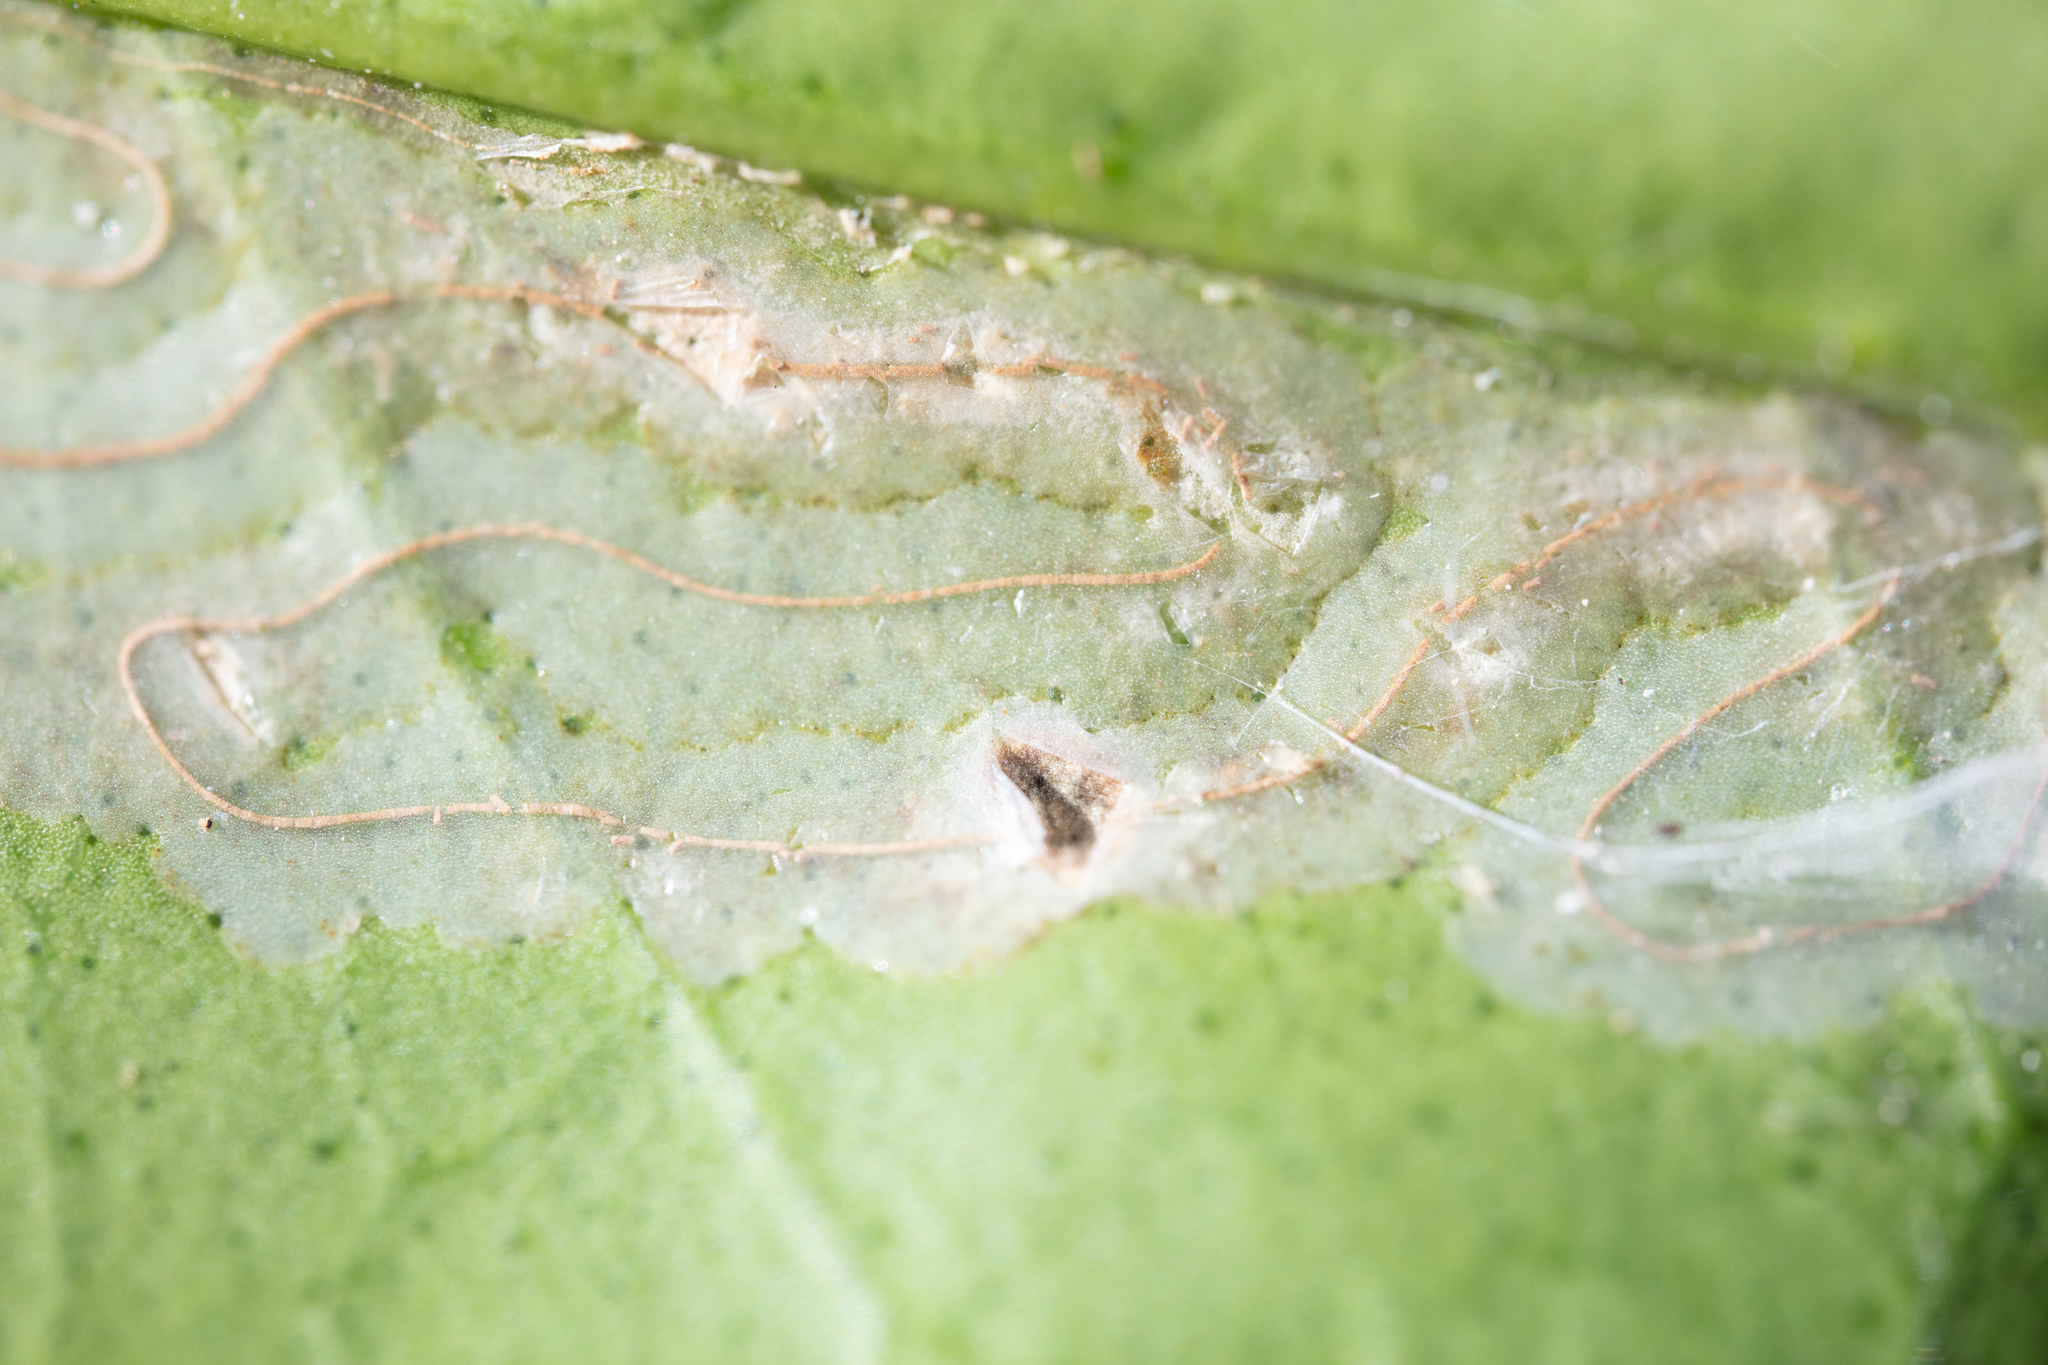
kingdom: Animalia
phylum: Arthropoda
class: Insecta
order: Lepidoptera
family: Gracillariidae
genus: Phyllocnistis
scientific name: Phyllocnistis citrella
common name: Citrus leafminer
